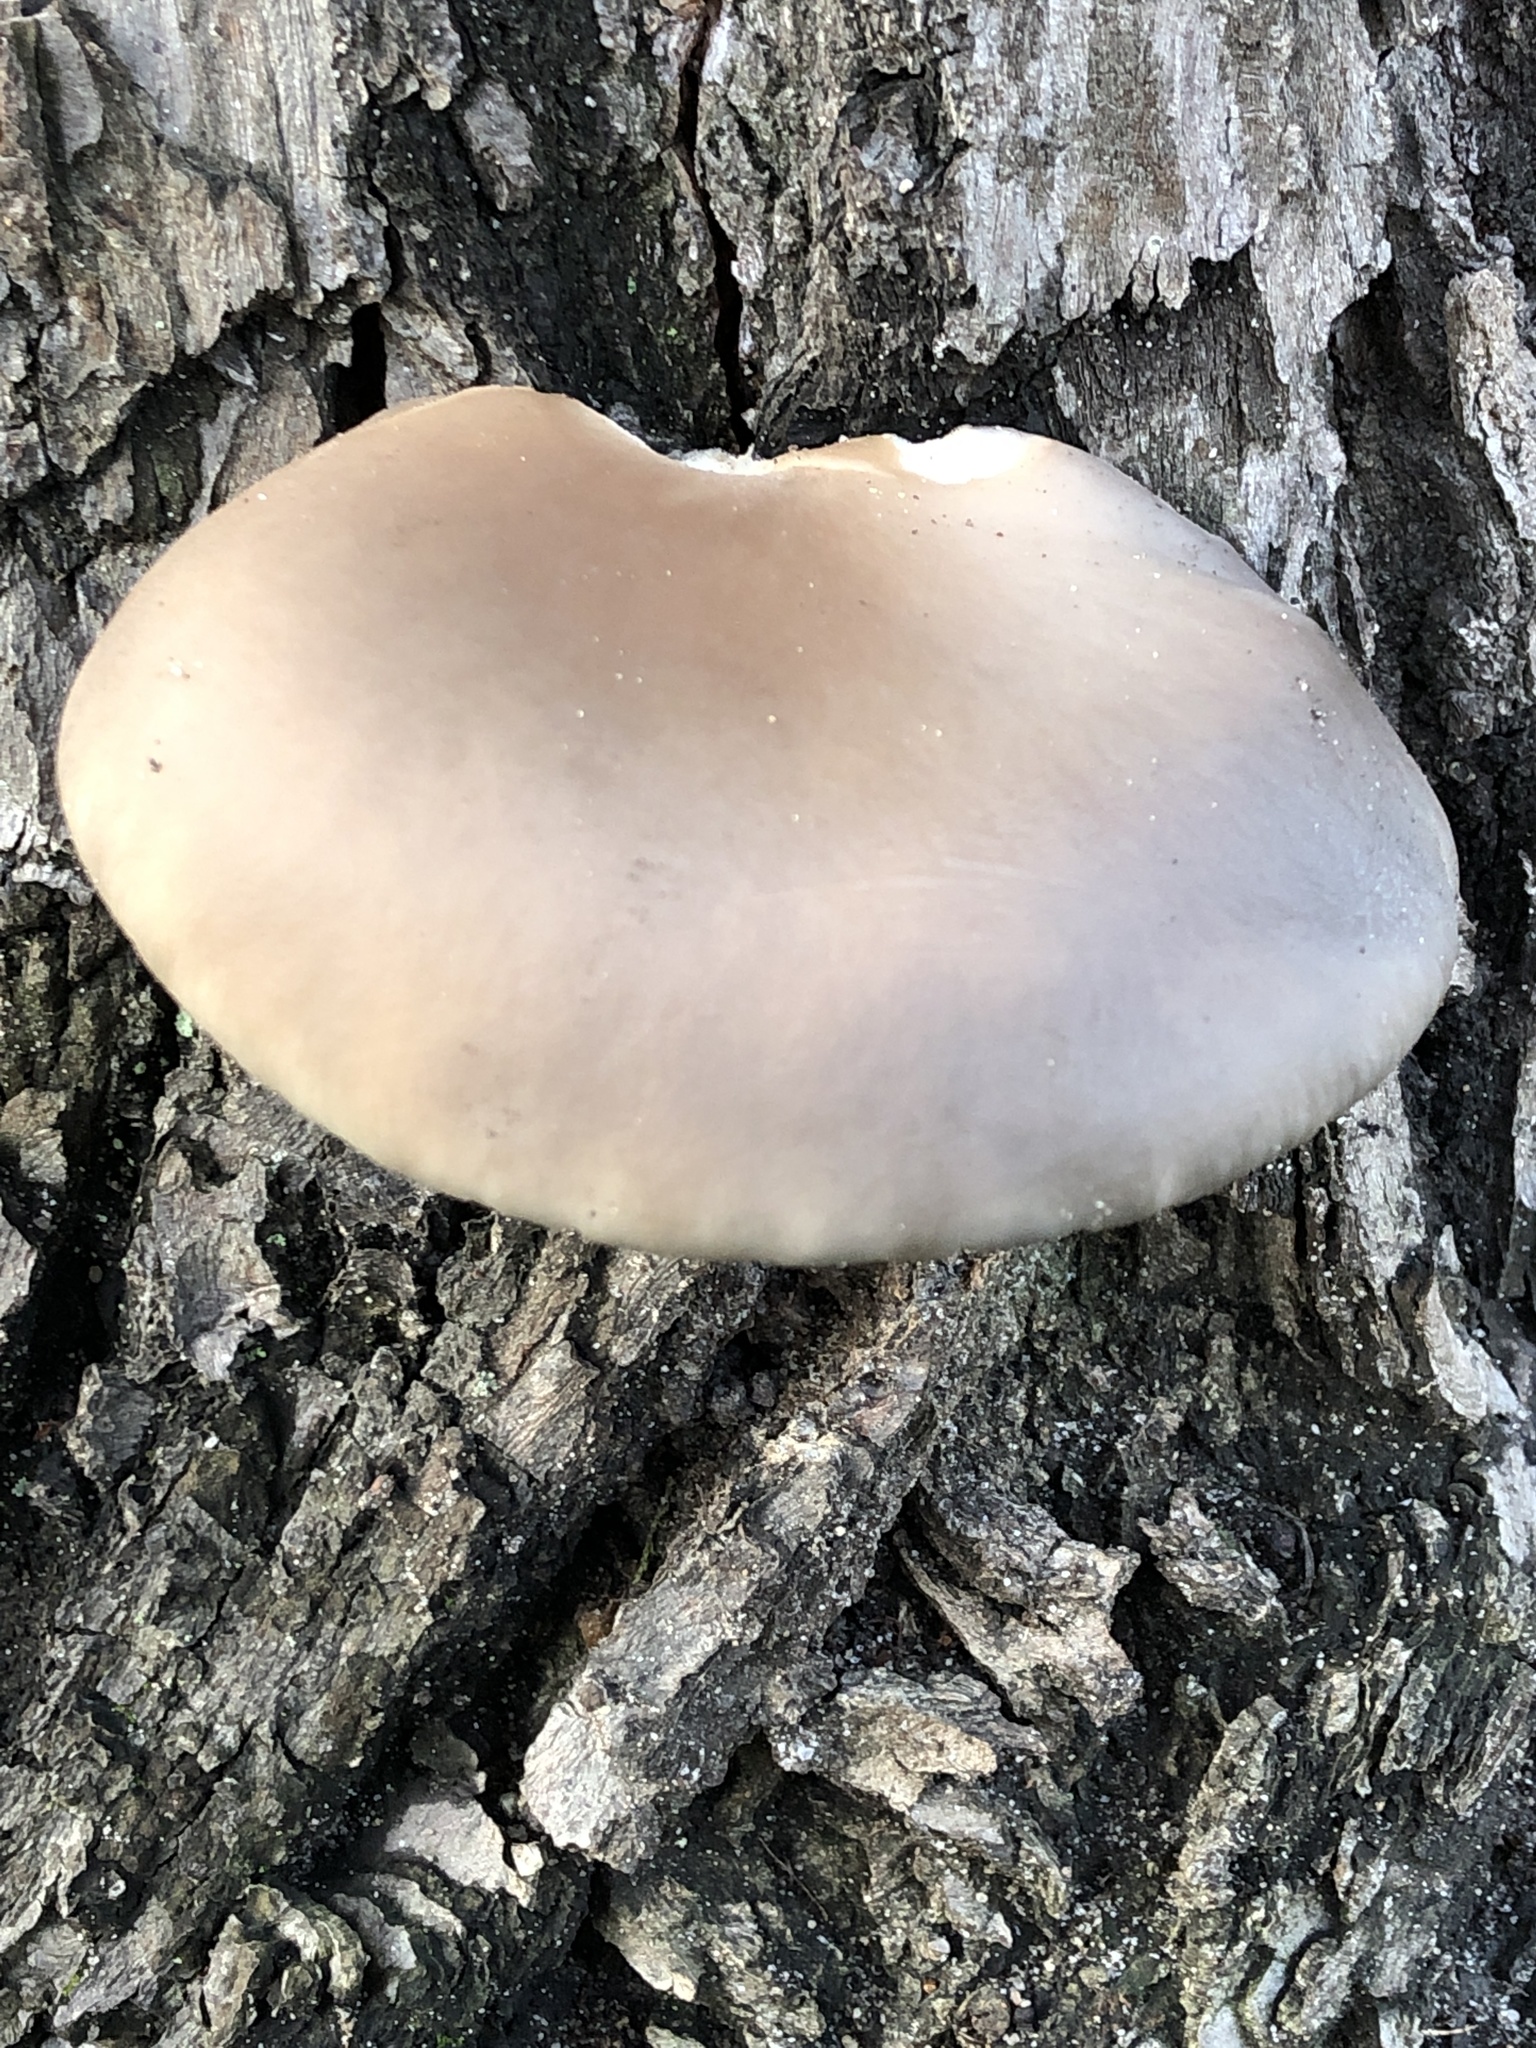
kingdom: Fungi
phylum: Basidiomycota
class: Agaricomycetes
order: Agaricales
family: Pleurotaceae
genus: Pleurotus
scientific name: Pleurotus ostreatus
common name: Oyster mushroom
